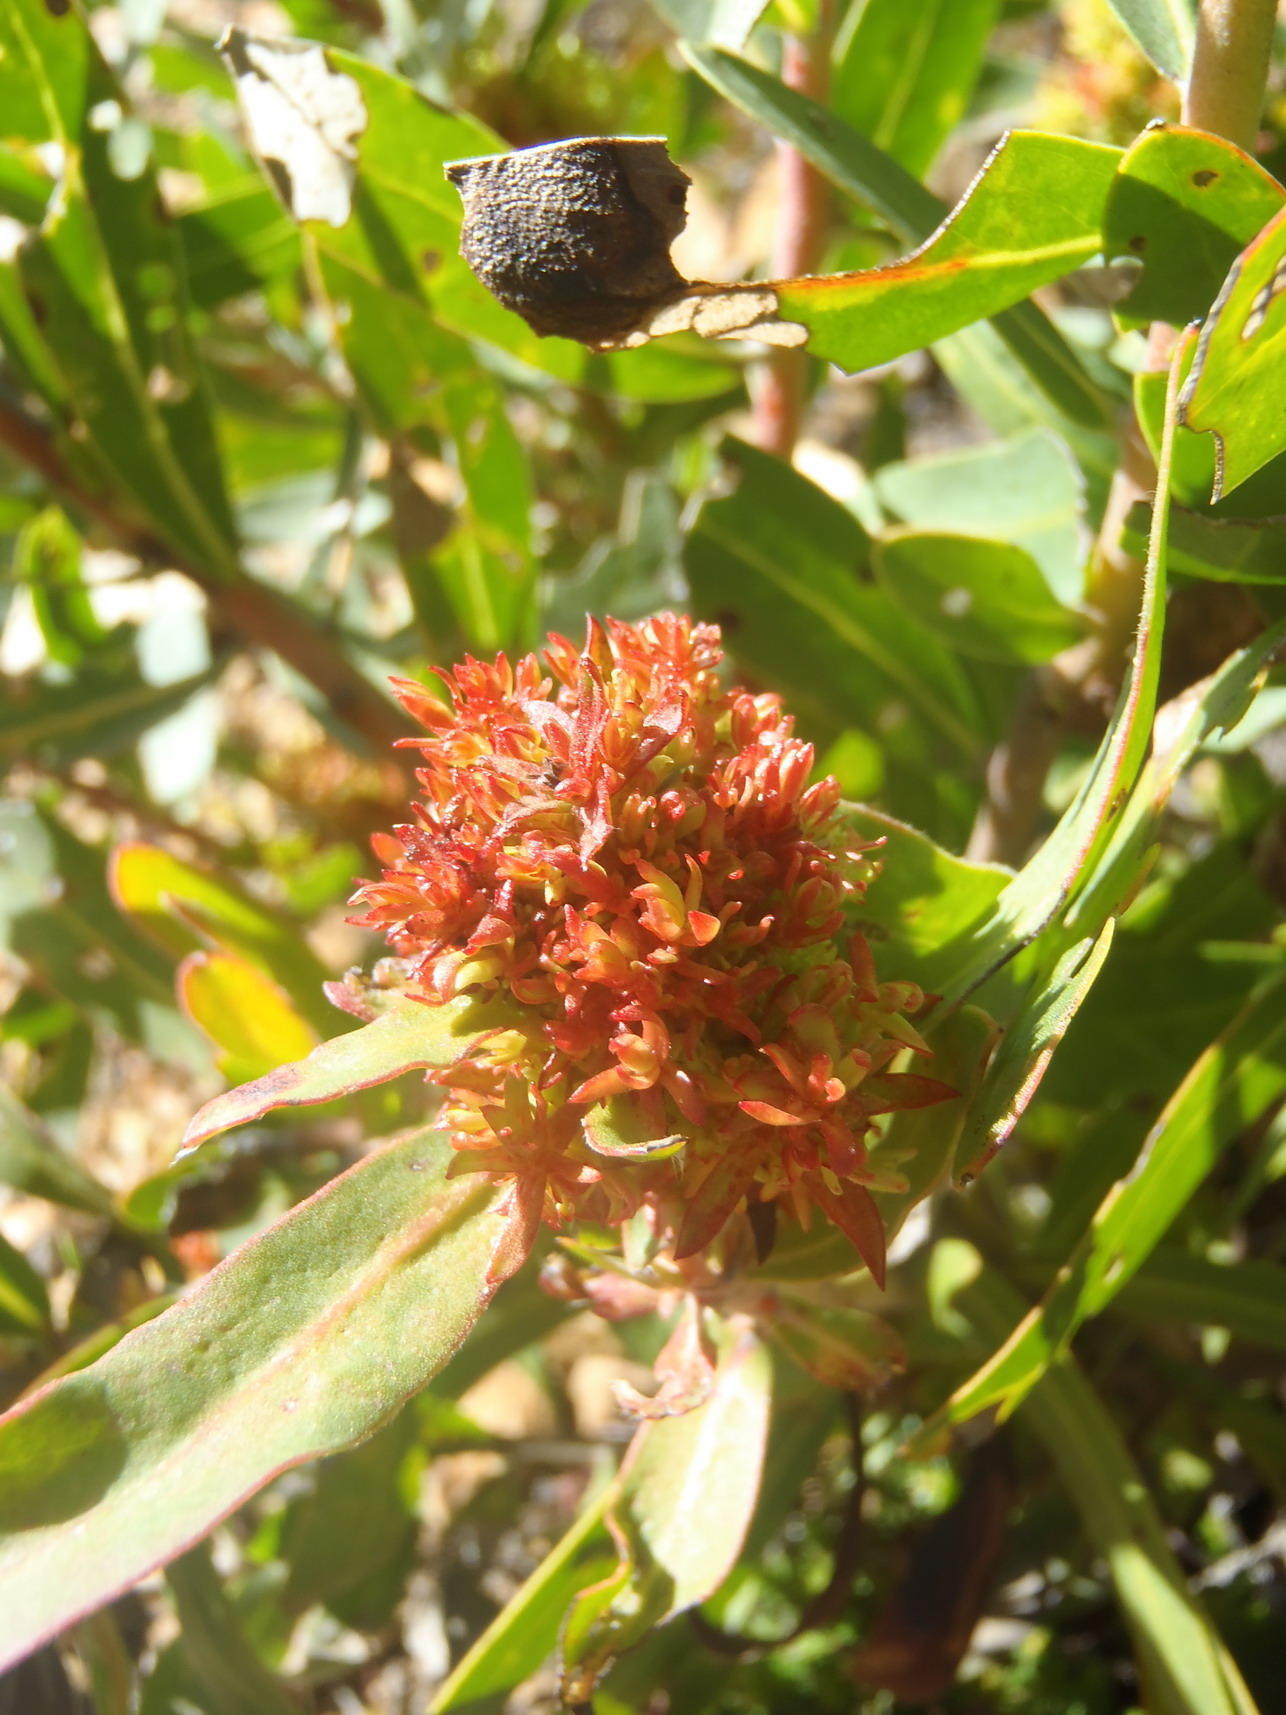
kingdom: Bacteria
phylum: Firmicutes
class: Bacilli
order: Acholeplasmatales
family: Acholeplasmataceae
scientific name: Acholeplasmataceae
